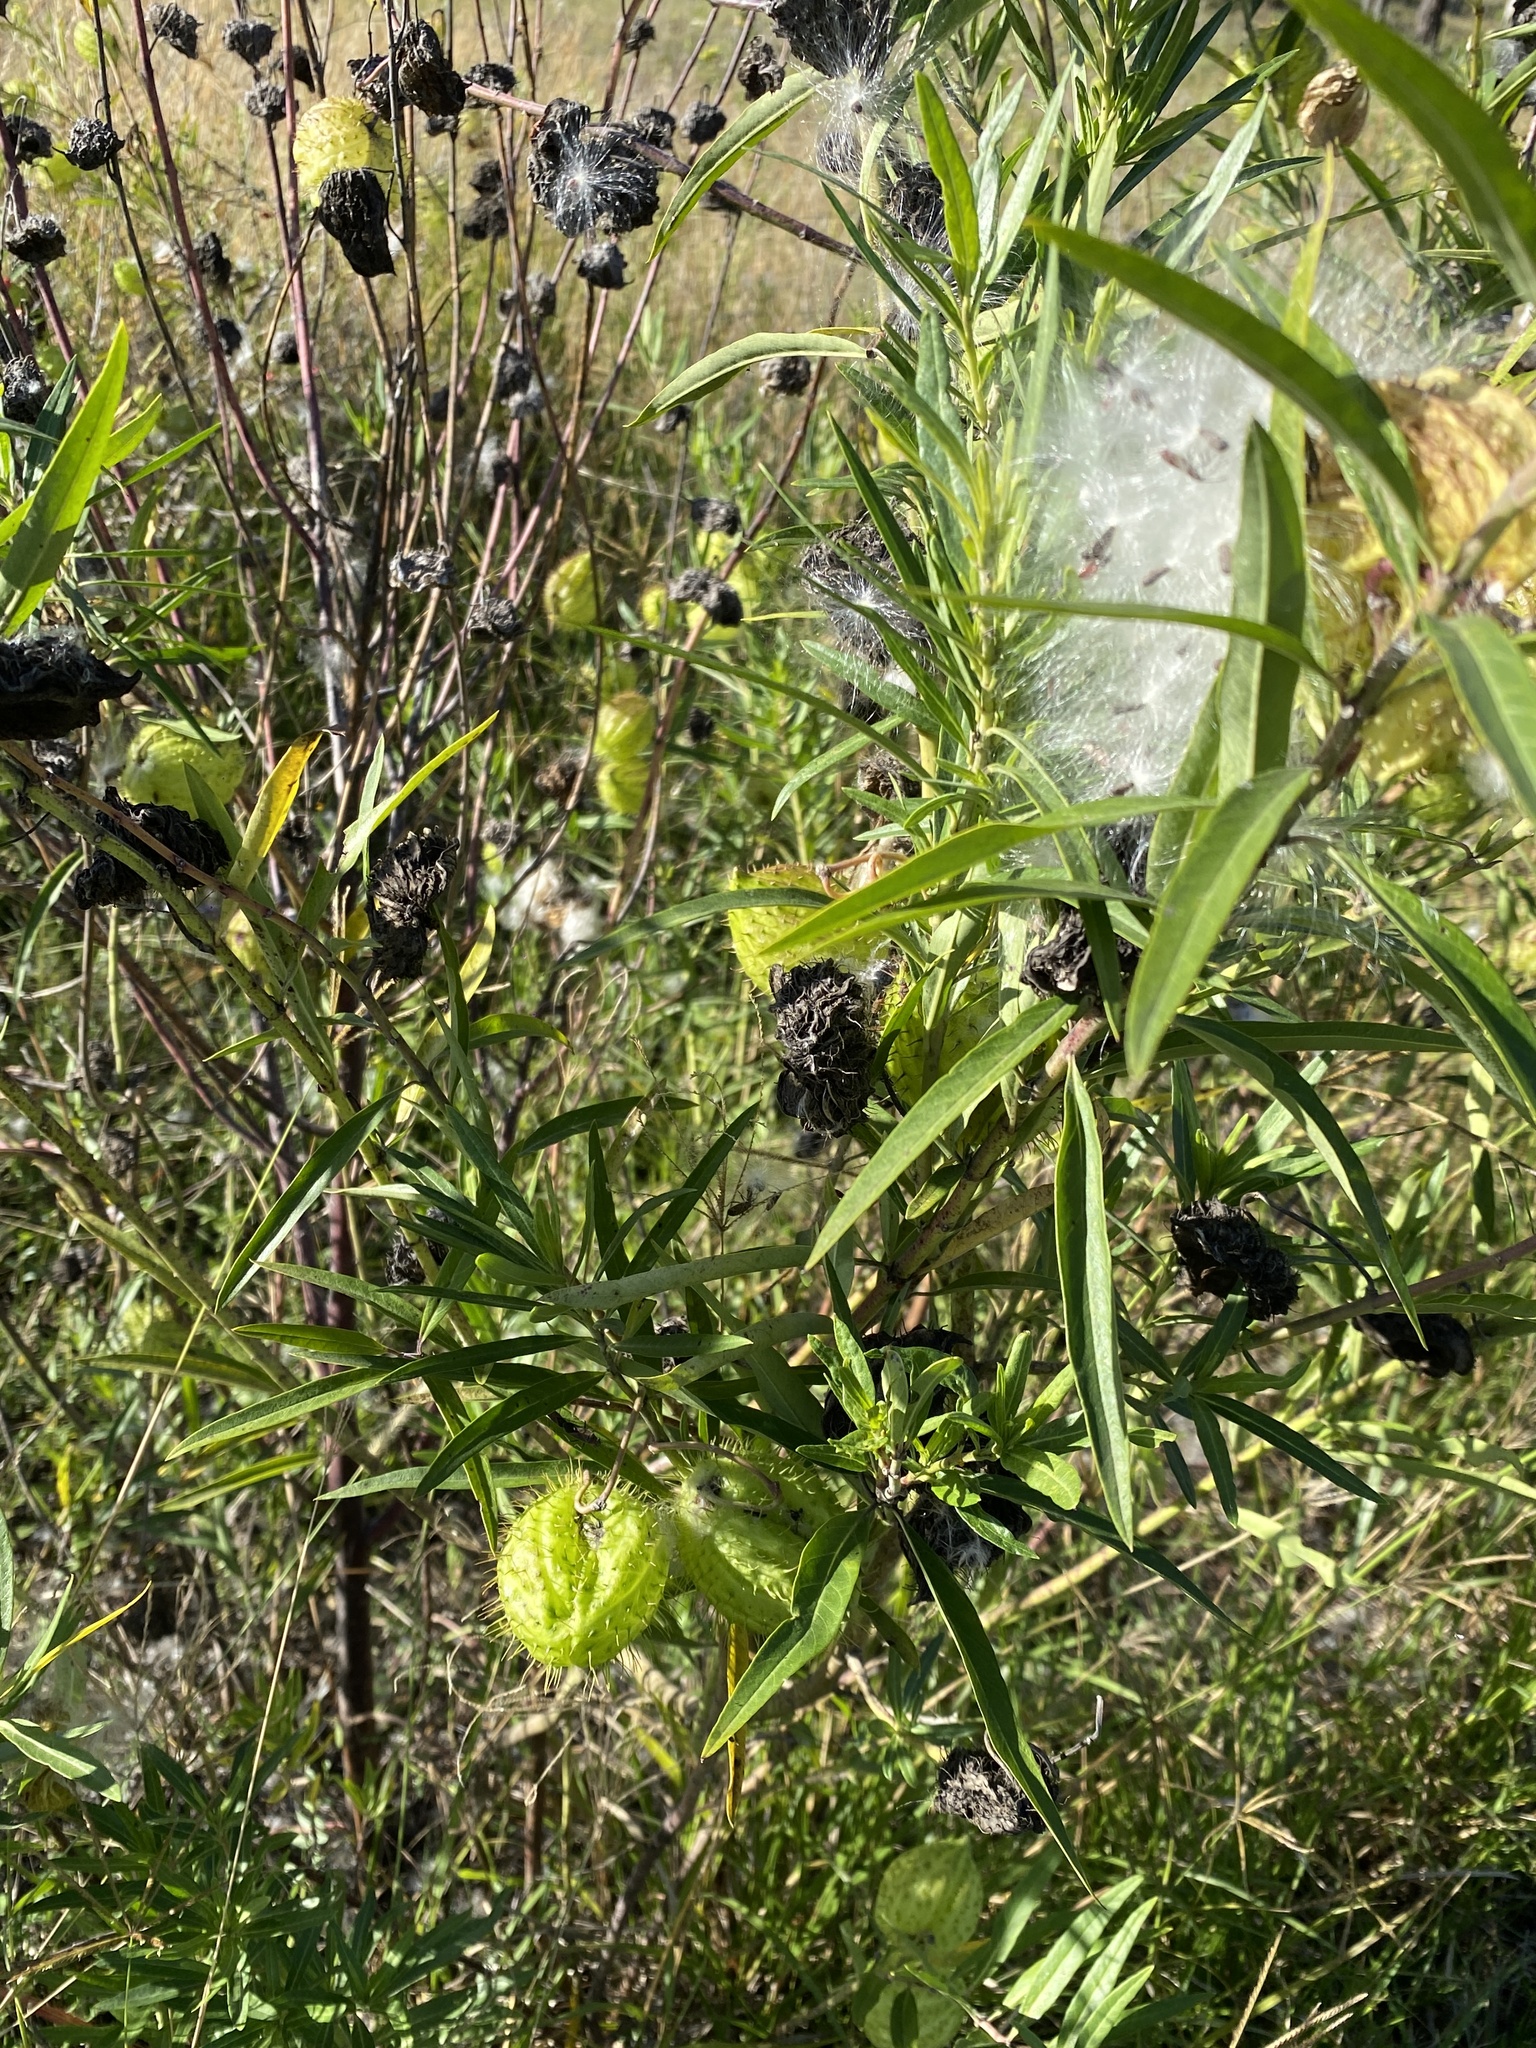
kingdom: Plantae
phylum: Tracheophyta
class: Magnoliopsida
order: Gentianales
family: Apocynaceae
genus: Gomphocarpus
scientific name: Gomphocarpus physocarpus
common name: Balloon cotton bush
